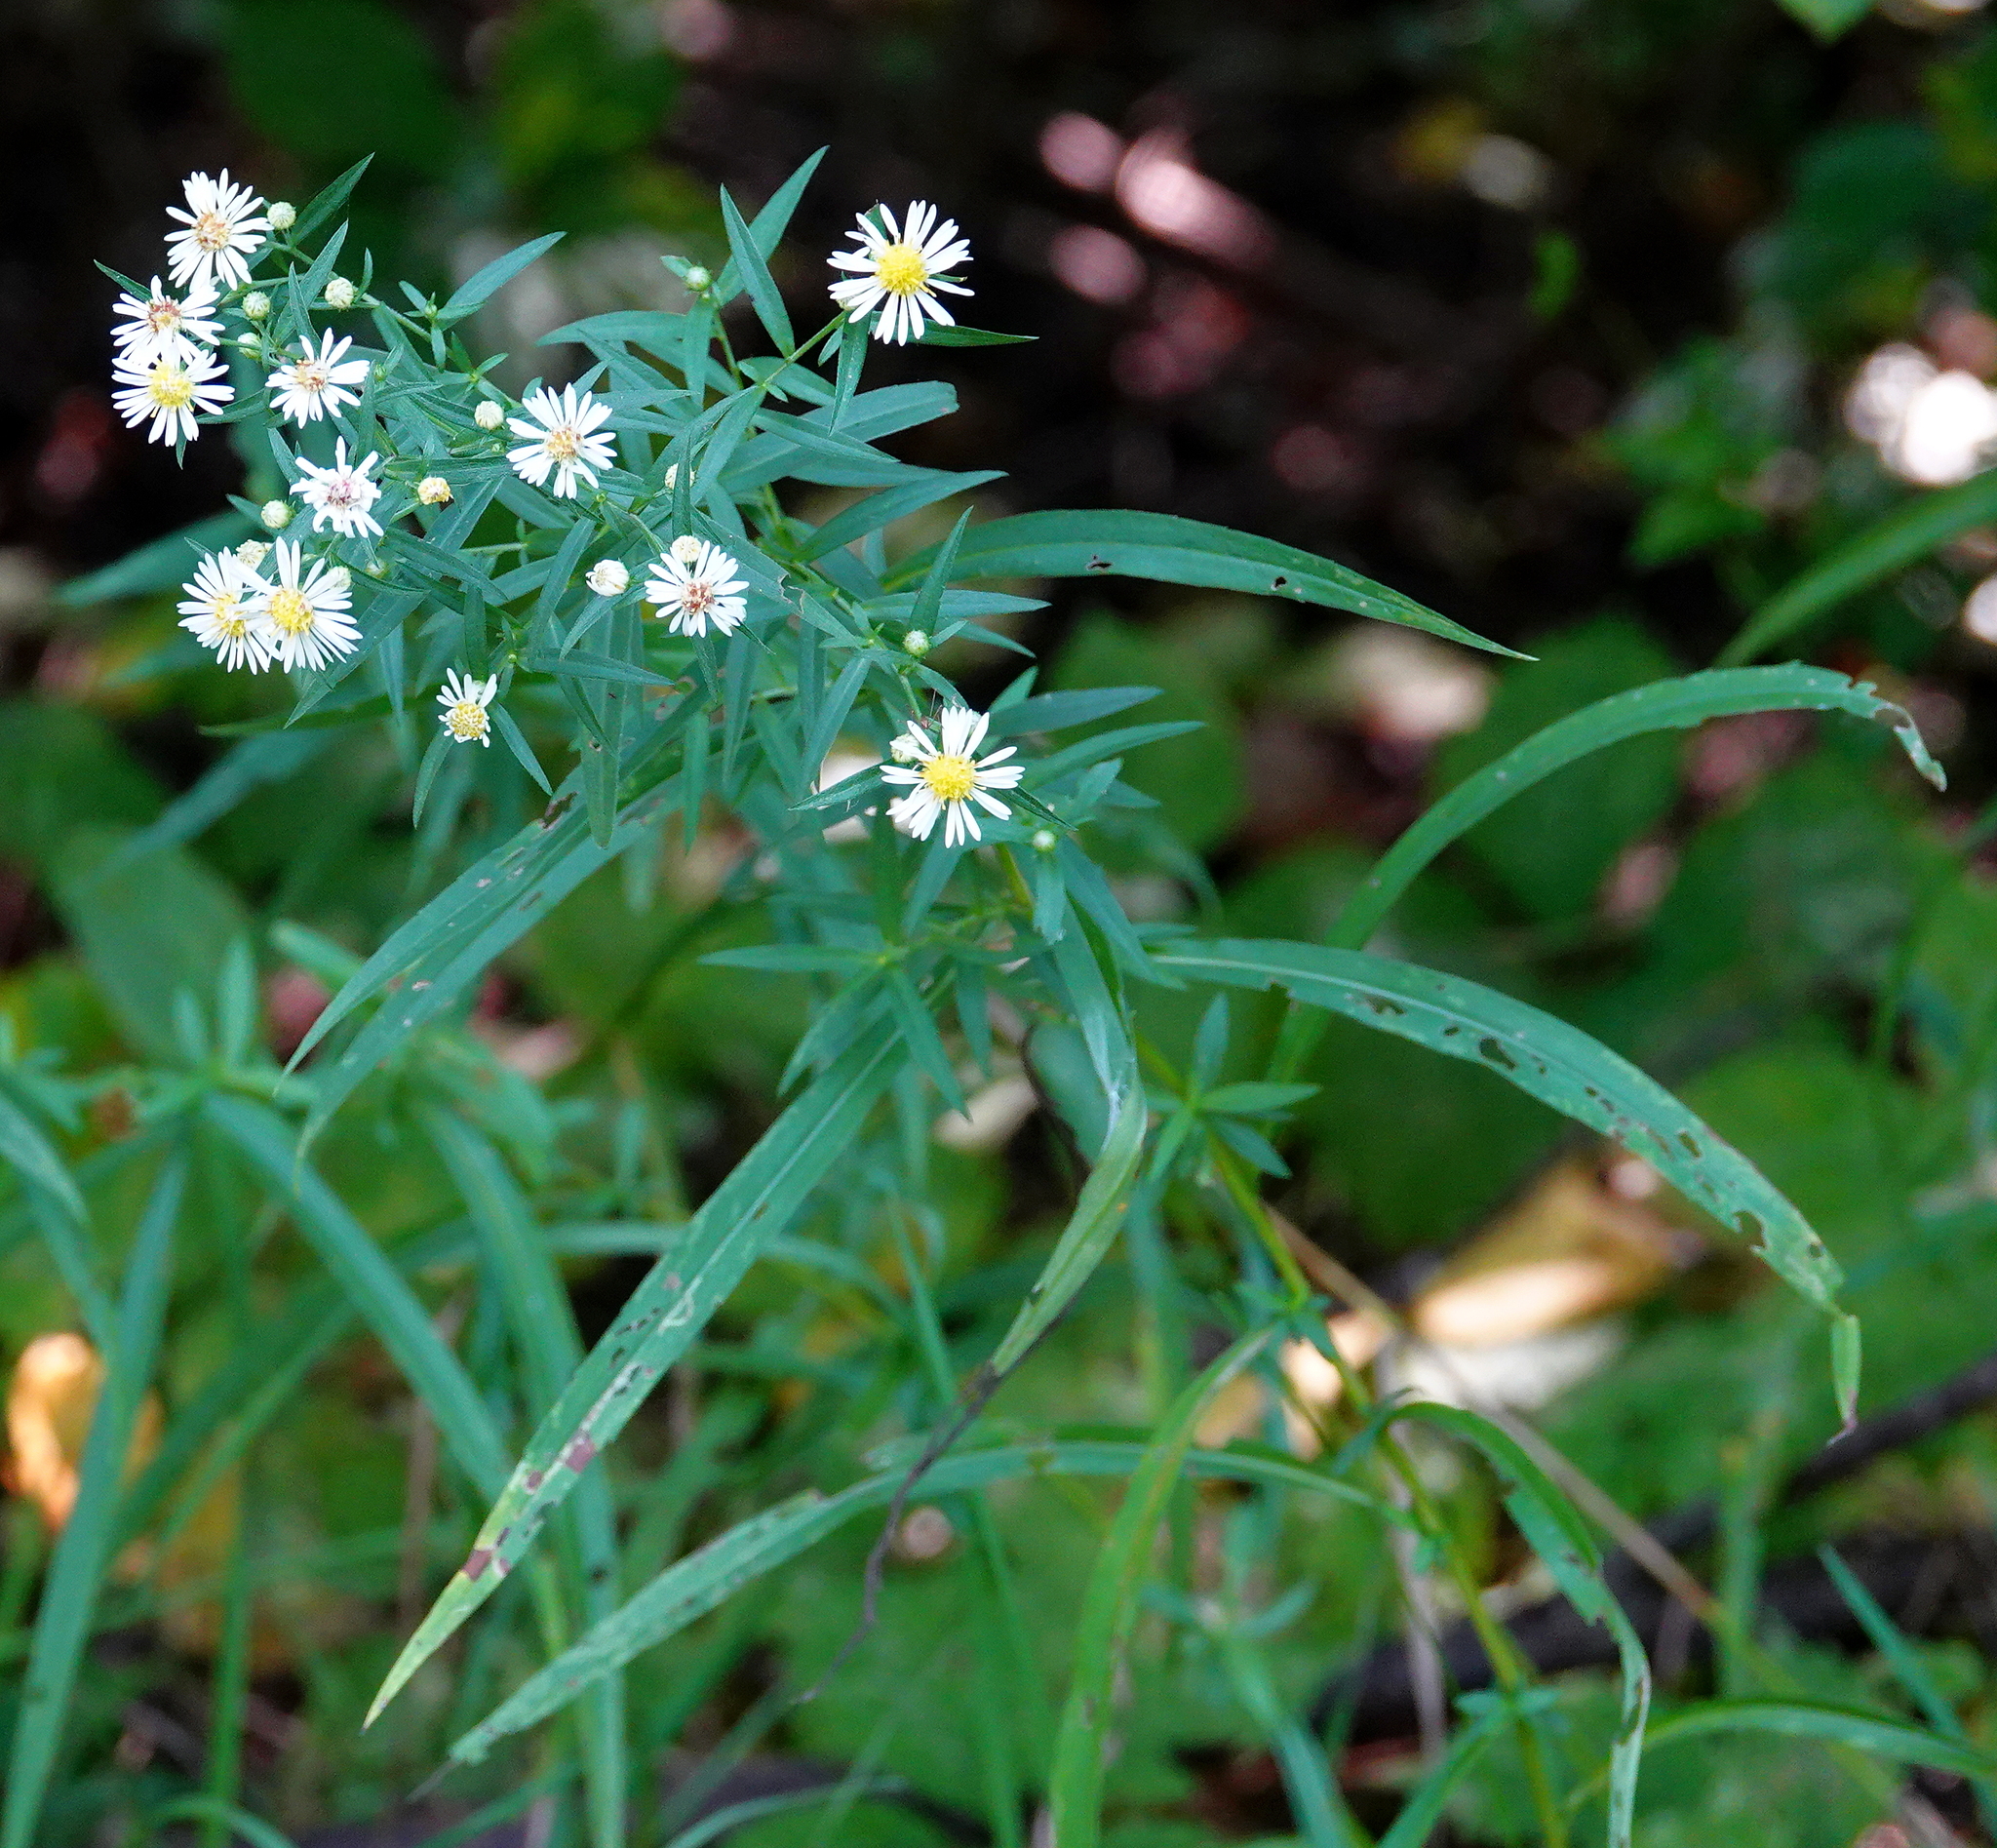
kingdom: Plantae
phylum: Tracheophyta
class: Magnoliopsida
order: Asterales
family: Asteraceae
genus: Symphyotrichum
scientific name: Symphyotrichum lanceolatum
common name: Panicled aster
